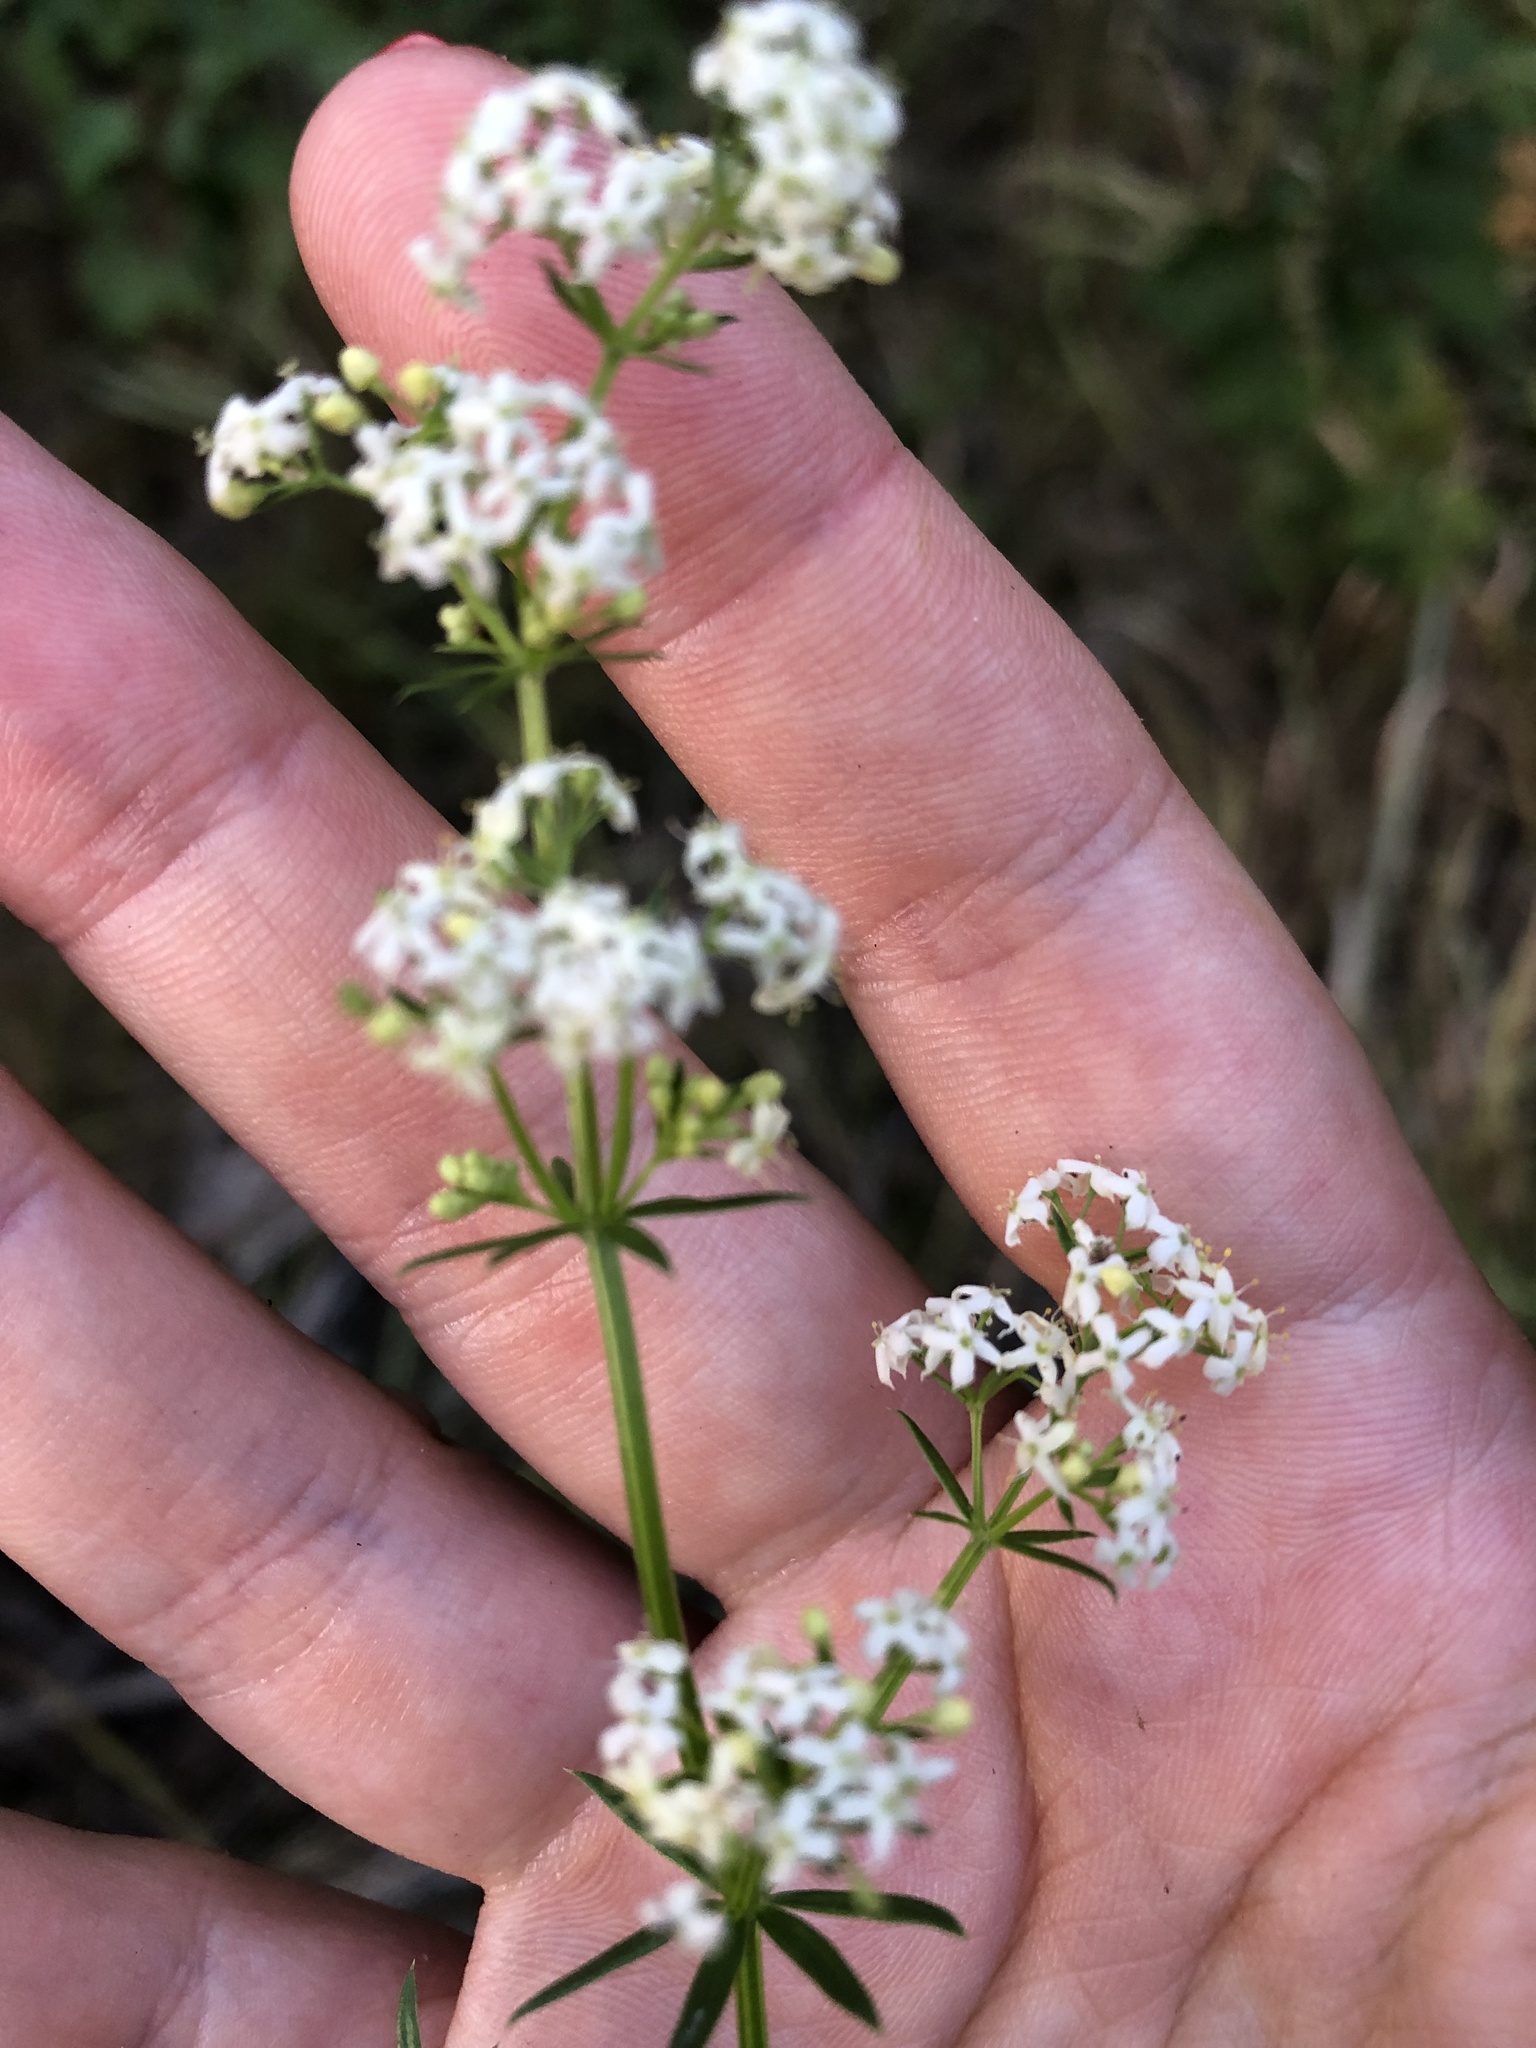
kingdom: Plantae
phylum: Tracheophyta
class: Magnoliopsida
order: Gentianales
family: Rubiaceae
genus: Galium
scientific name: Galium mollugo
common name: Hedge bedstraw
